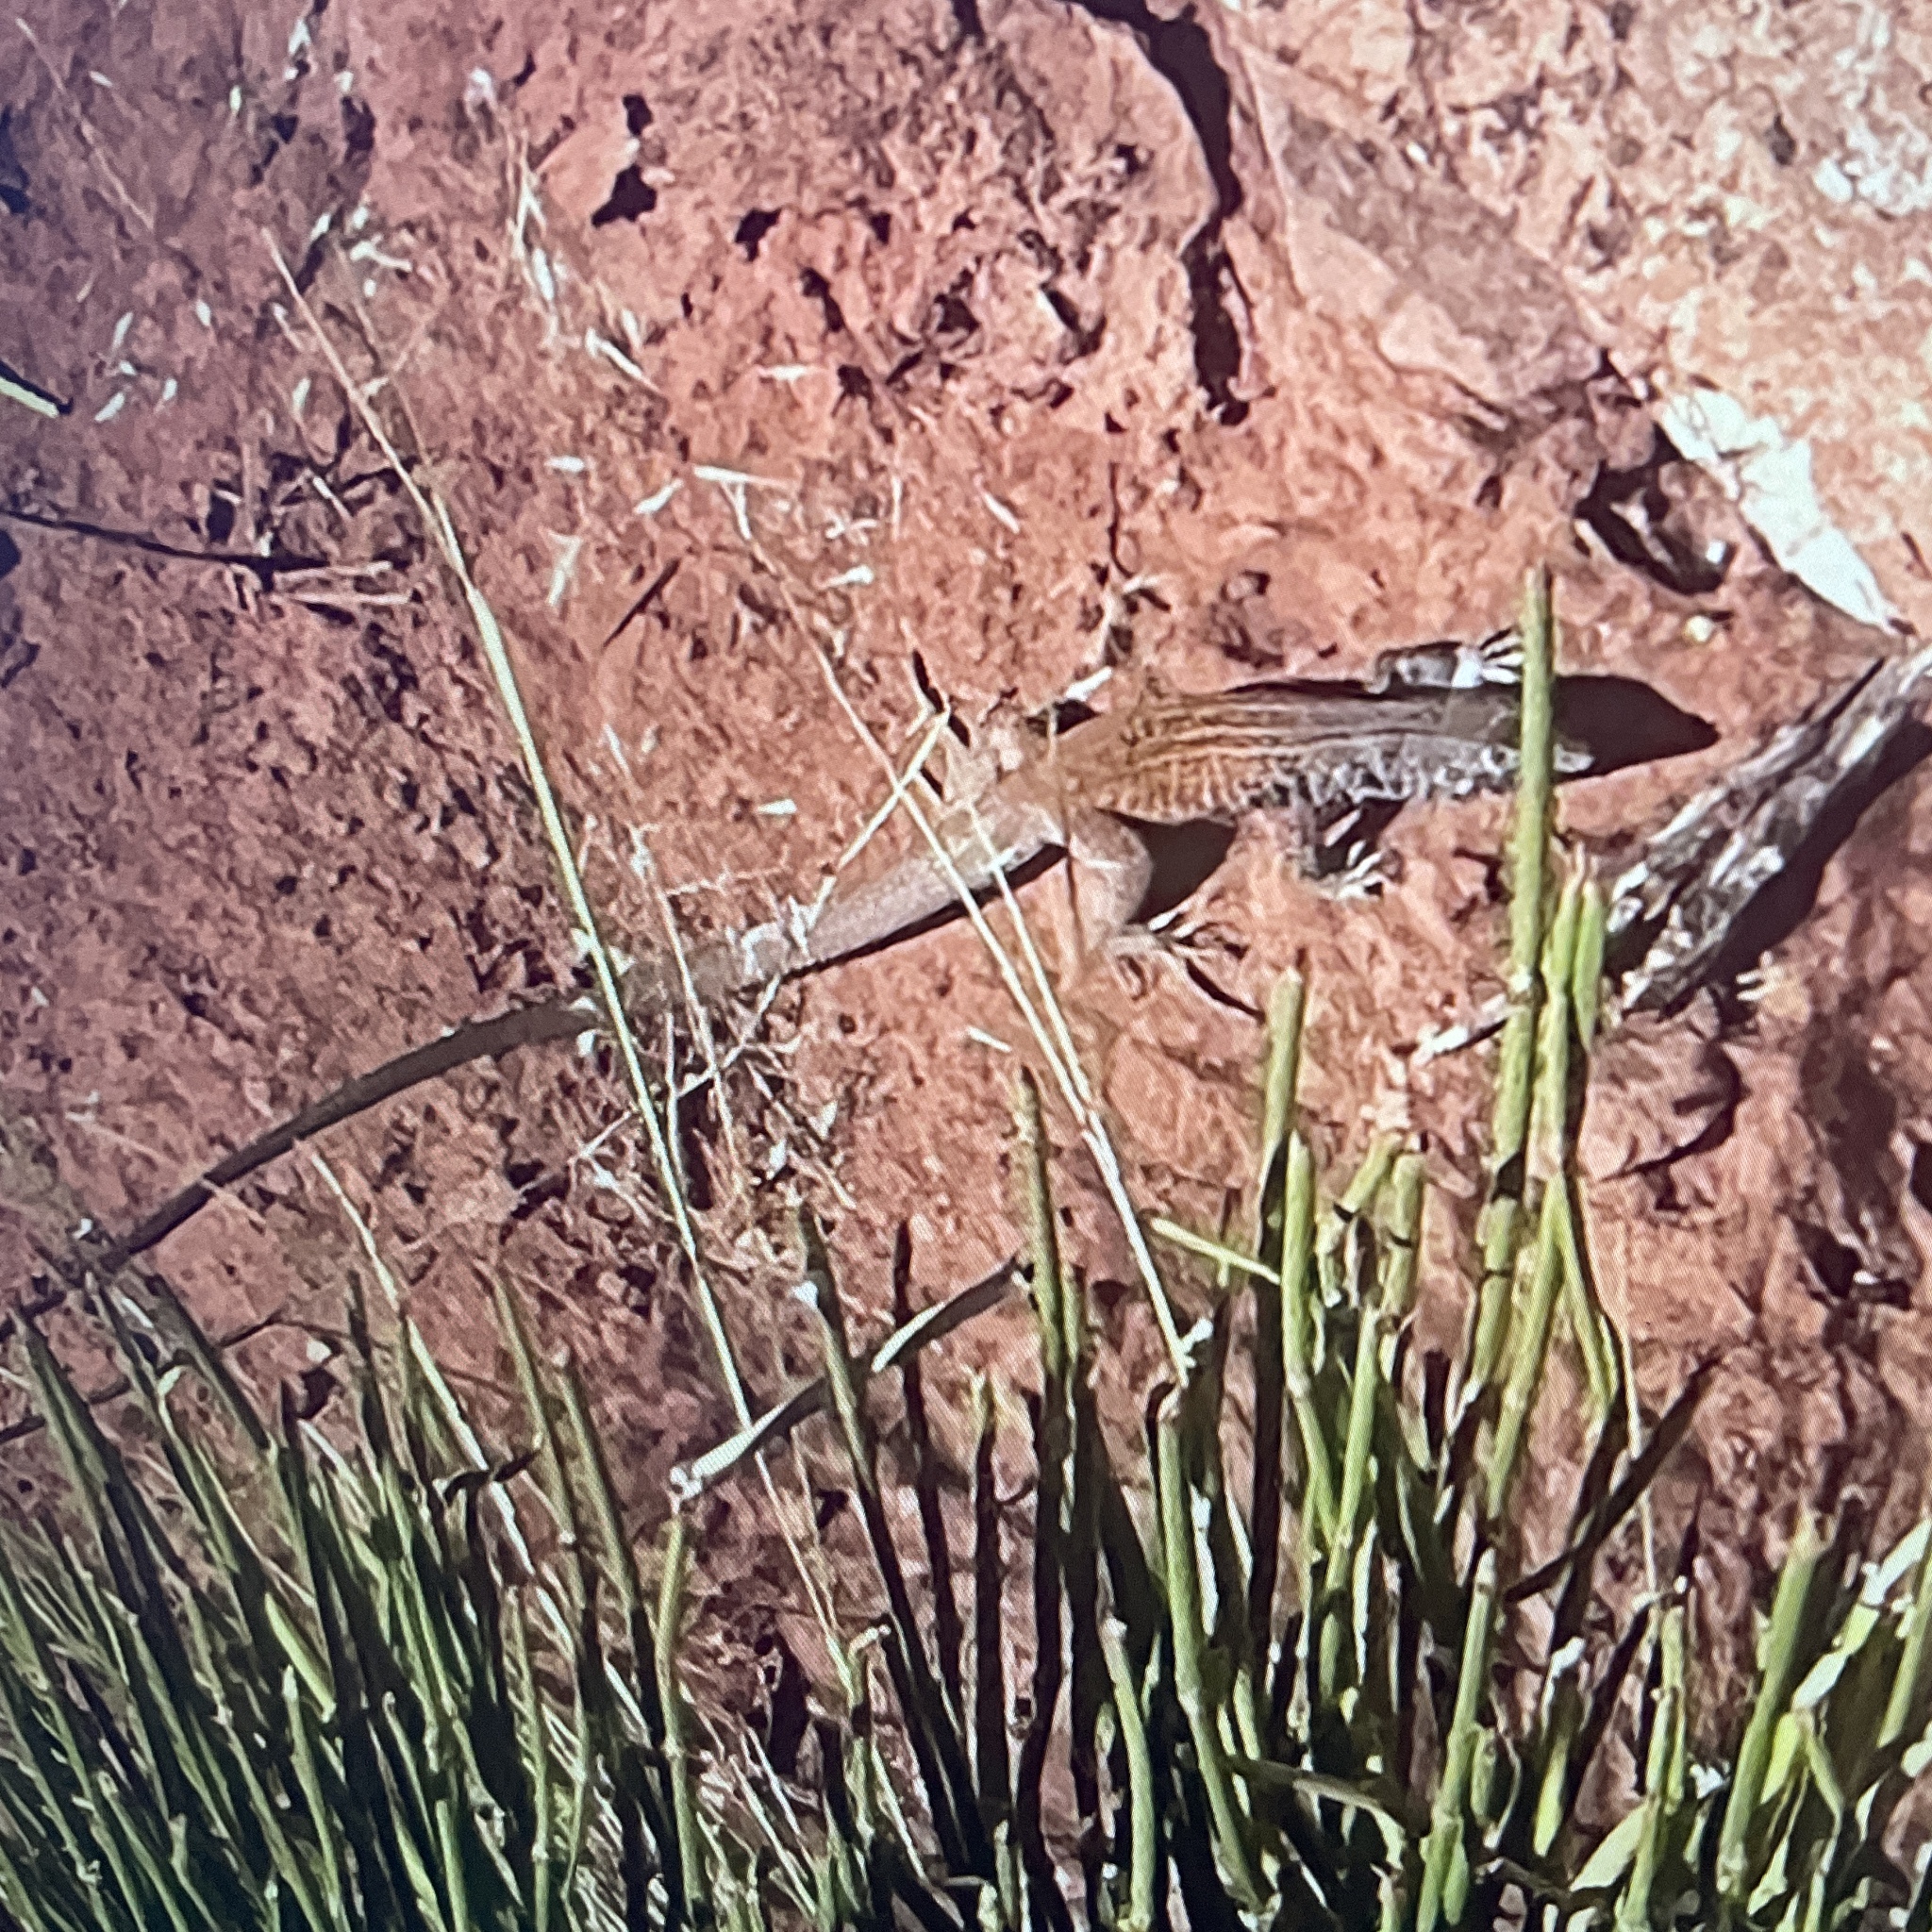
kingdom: Animalia
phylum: Chordata
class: Squamata
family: Teiidae
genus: Aspidoscelis
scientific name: Aspidoscelis tigris
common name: Tiger whiptail
